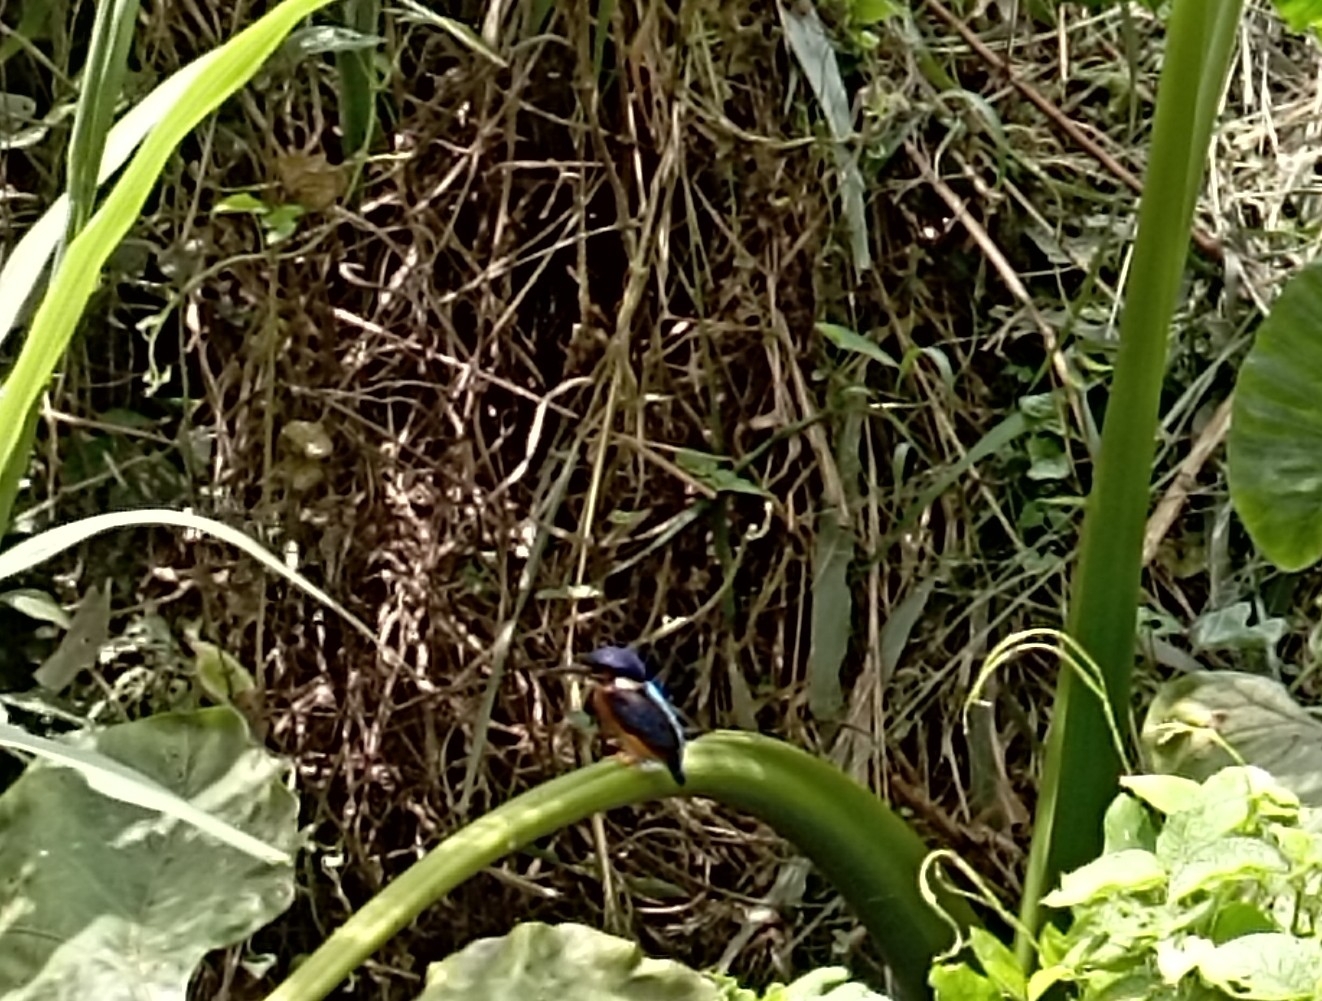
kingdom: Animalia
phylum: Chordata
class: Aves
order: Coraciiformes
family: Alcedinidae
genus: Alcedo
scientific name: Alcedo meninting
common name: Blue-eared kingfisher
